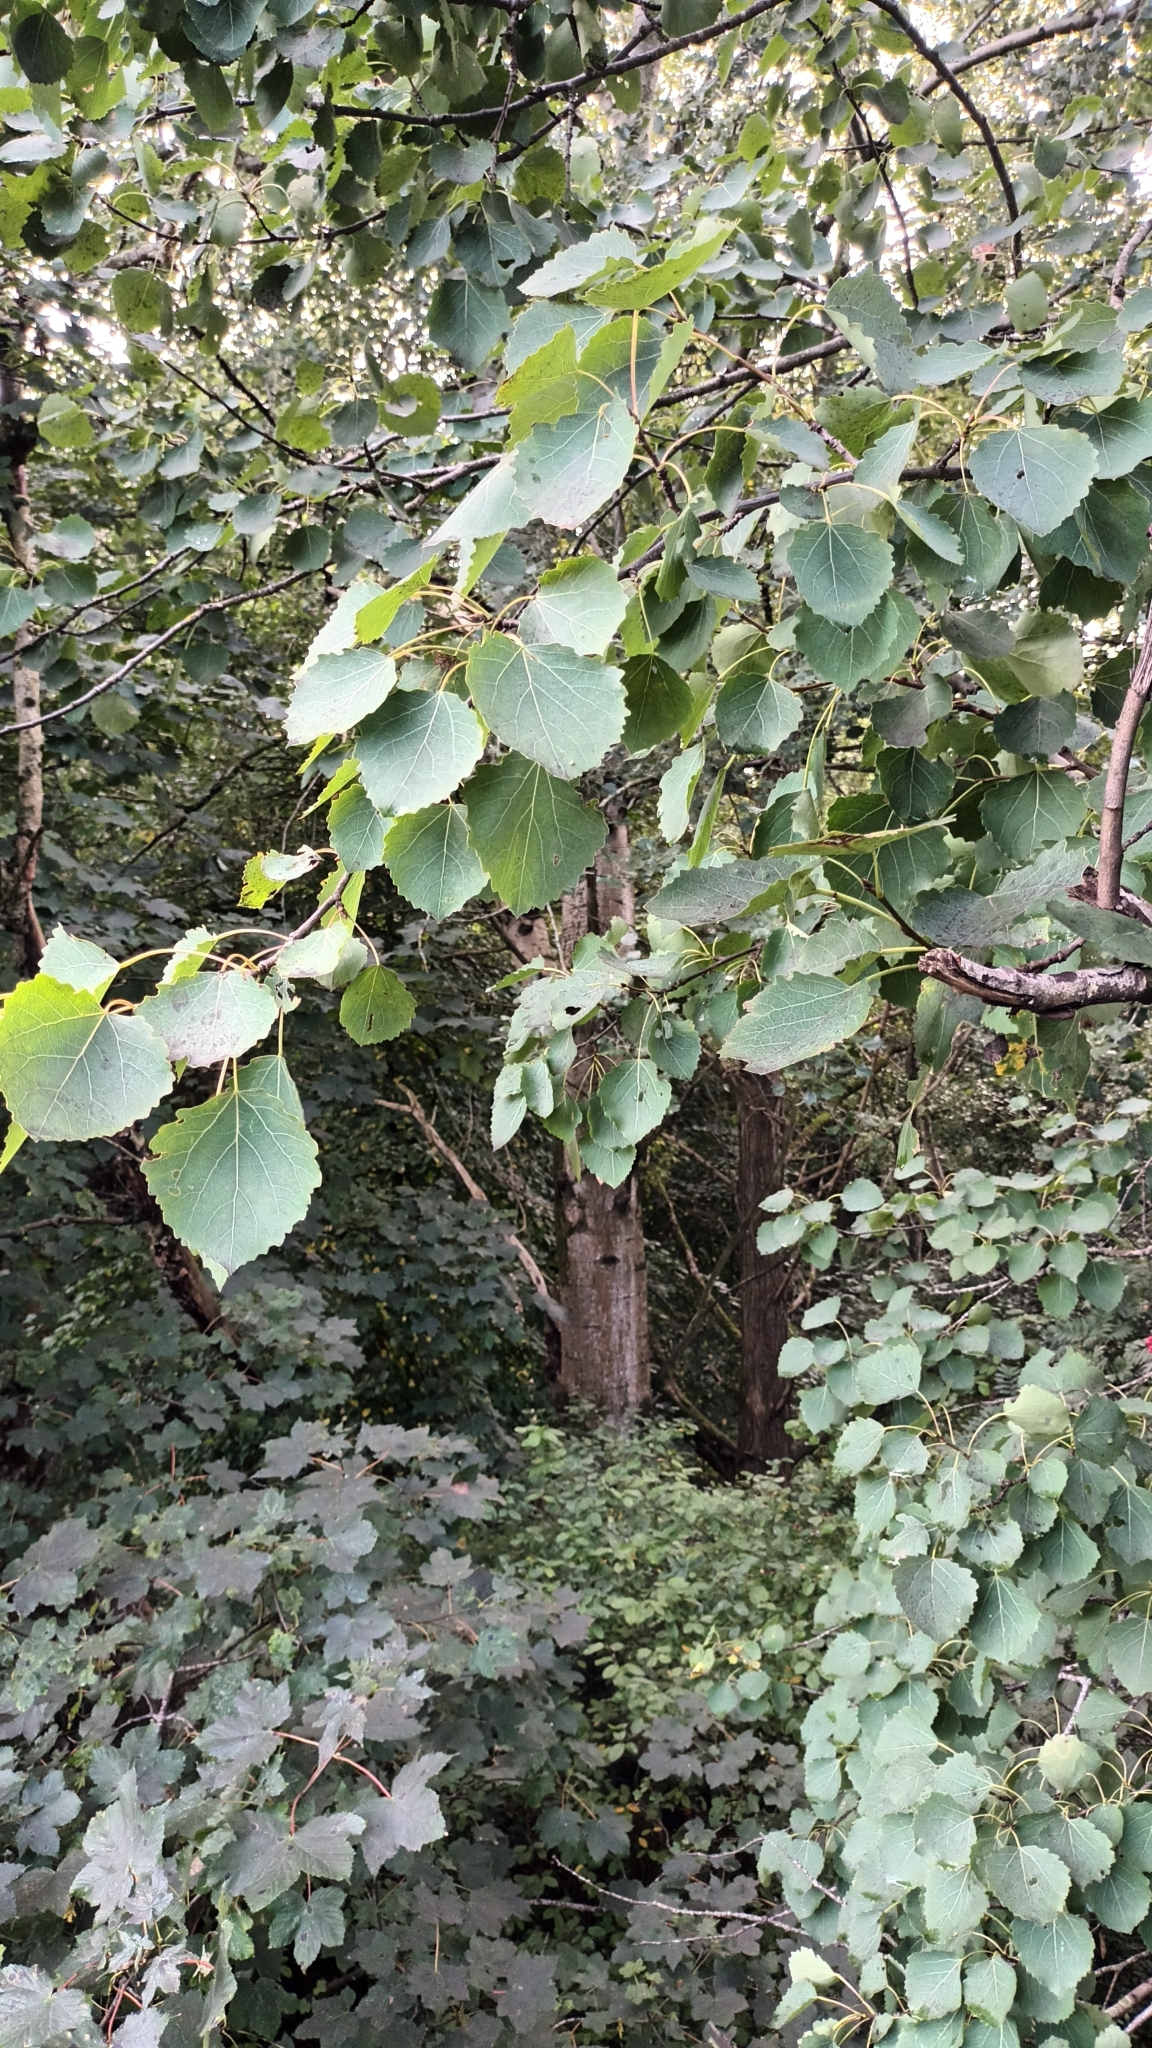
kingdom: Plantae
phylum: Tracheophyta
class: Magnoliopsida
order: Malpighiales
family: Salicaceae
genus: Populus
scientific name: Populus tremula
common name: European aspen
